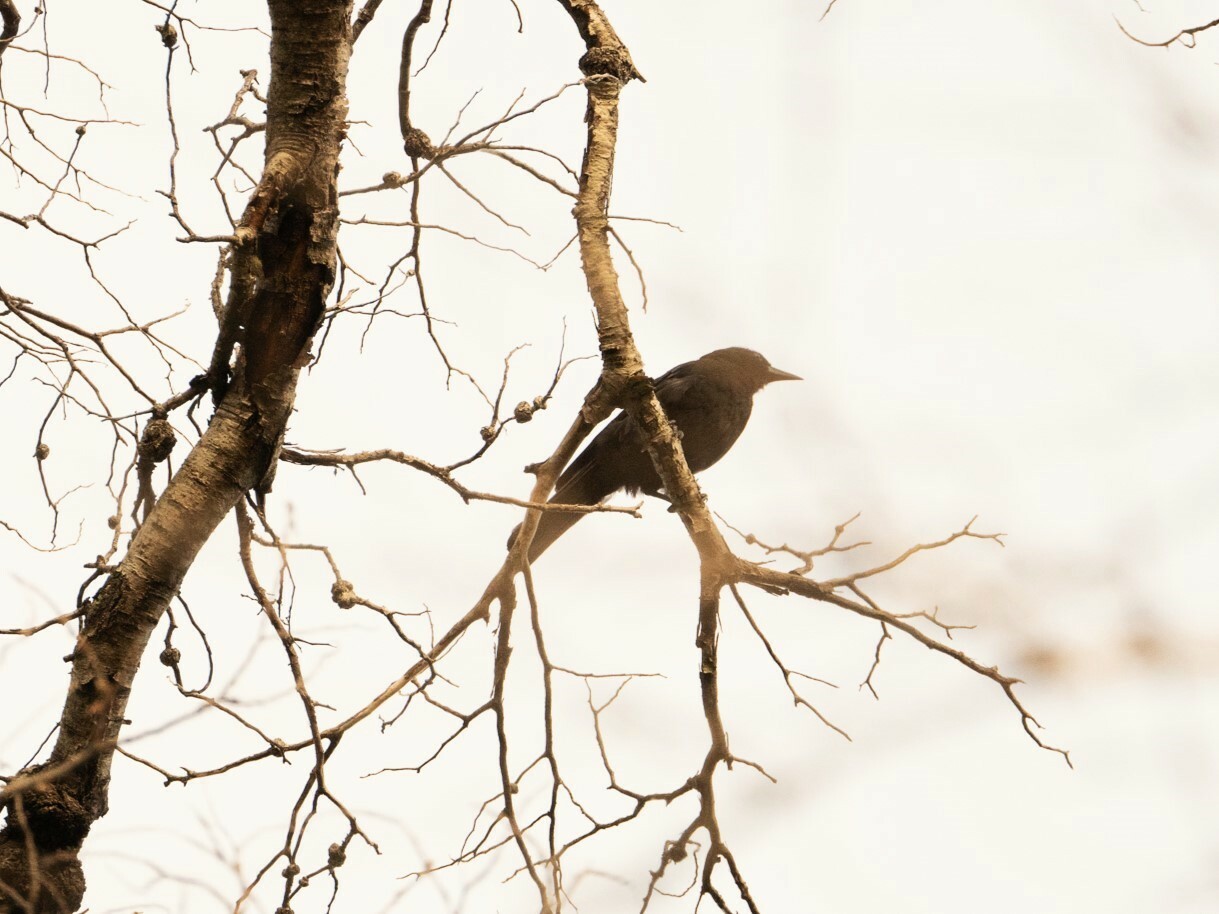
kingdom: Animalia
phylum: Chordata
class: Aves
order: Passeriformes
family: Icteridae
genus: Curaeus
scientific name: Curaeus curaeus
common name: Austral blackbird
